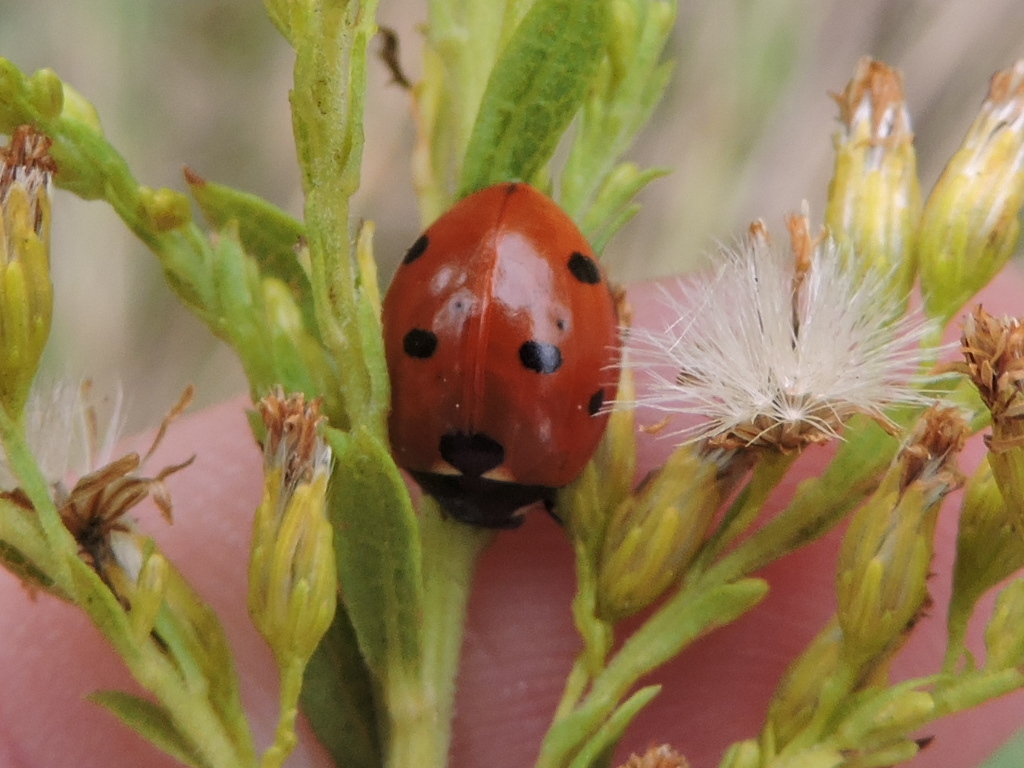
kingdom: Animalia
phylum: Arthropoda
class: Insecta
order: Coleoptera
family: Coccinellidae
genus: Coccinella
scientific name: Coccinella septempunctata
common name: Sevenspotted lady beetle
